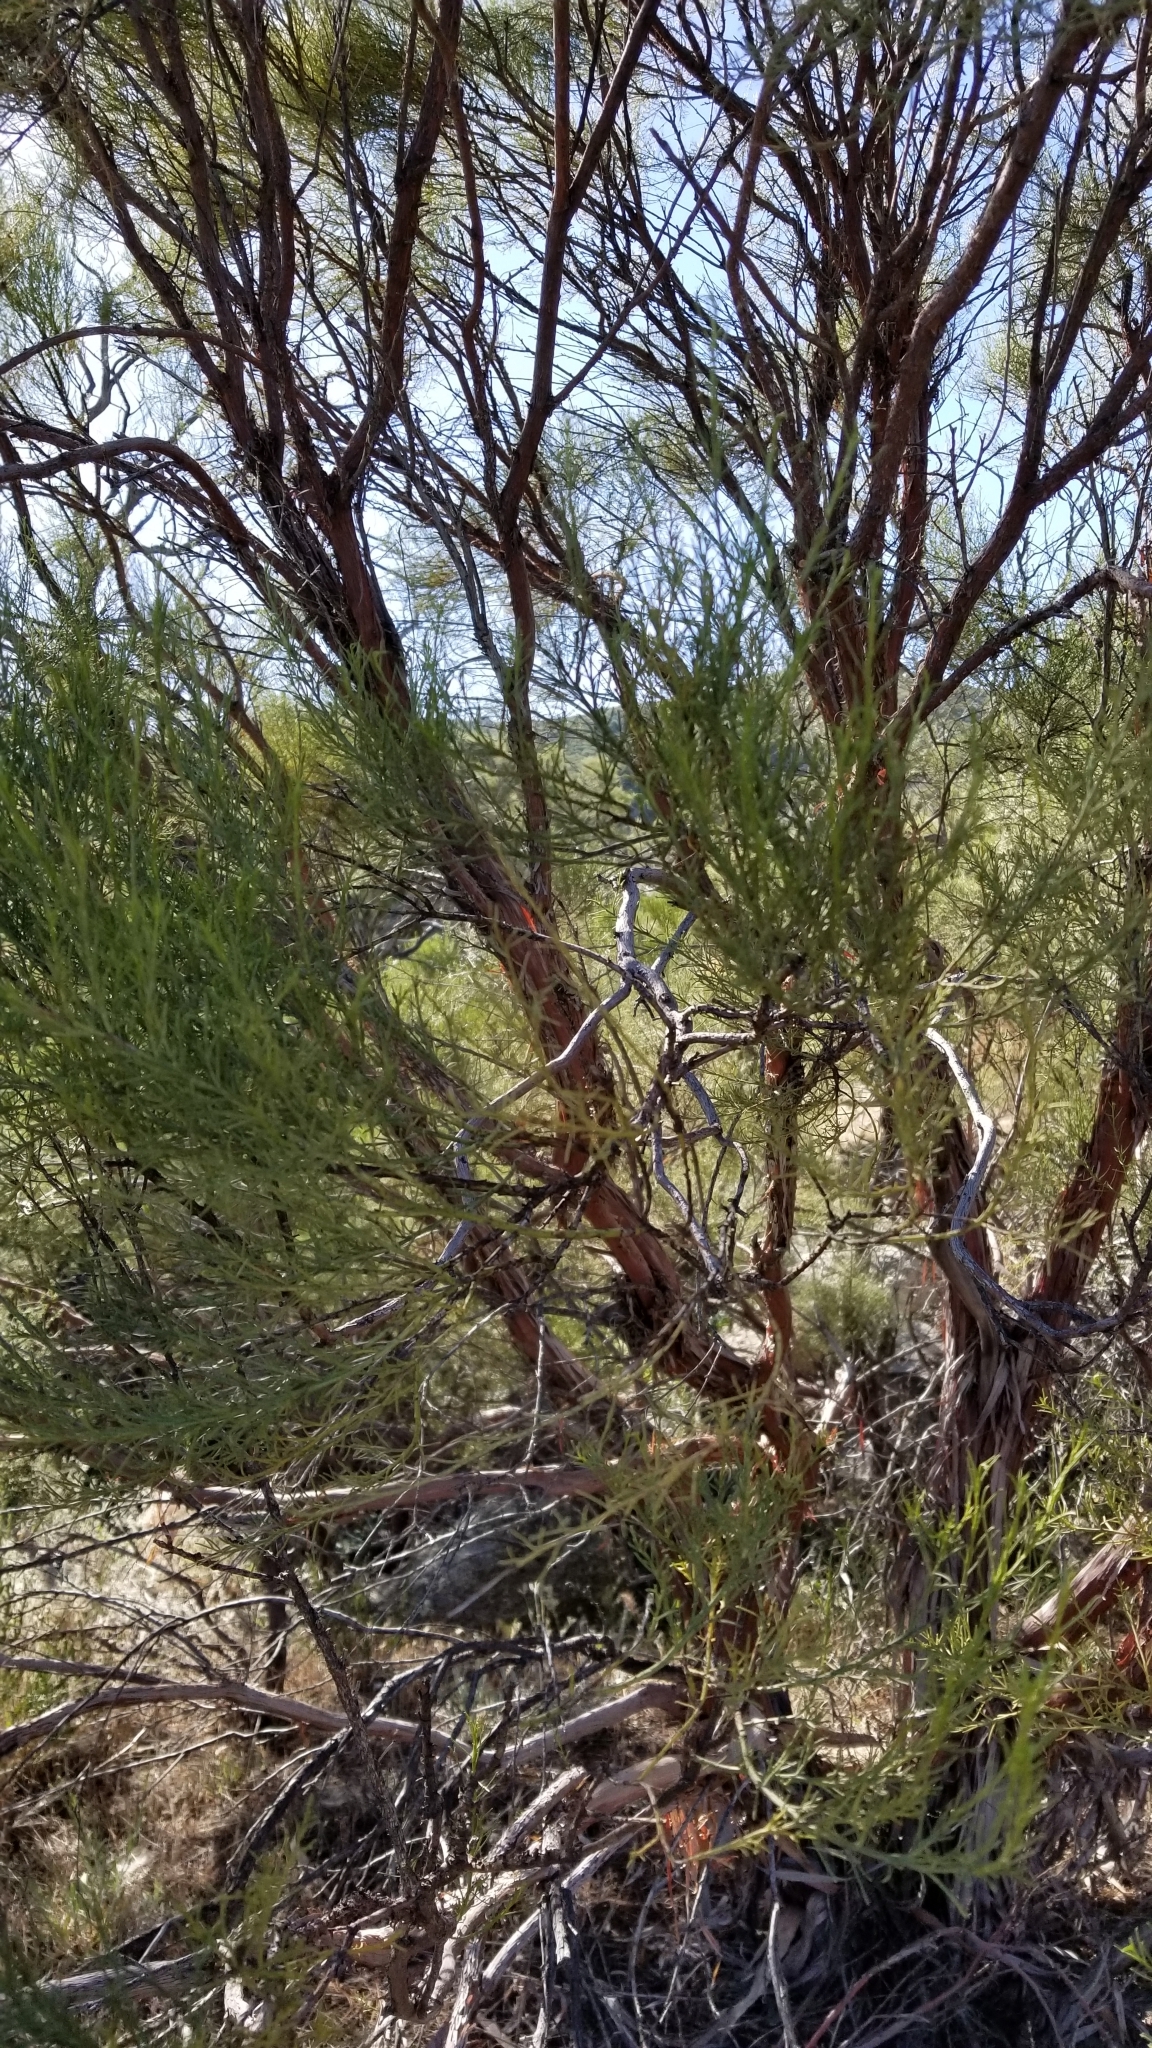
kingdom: Plantae
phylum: Tracheophyta
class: Magnoliopsida
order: Rosales
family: Rosaceae
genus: Adenostoma
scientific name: Adenostoma sparsifolium
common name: Red shank
